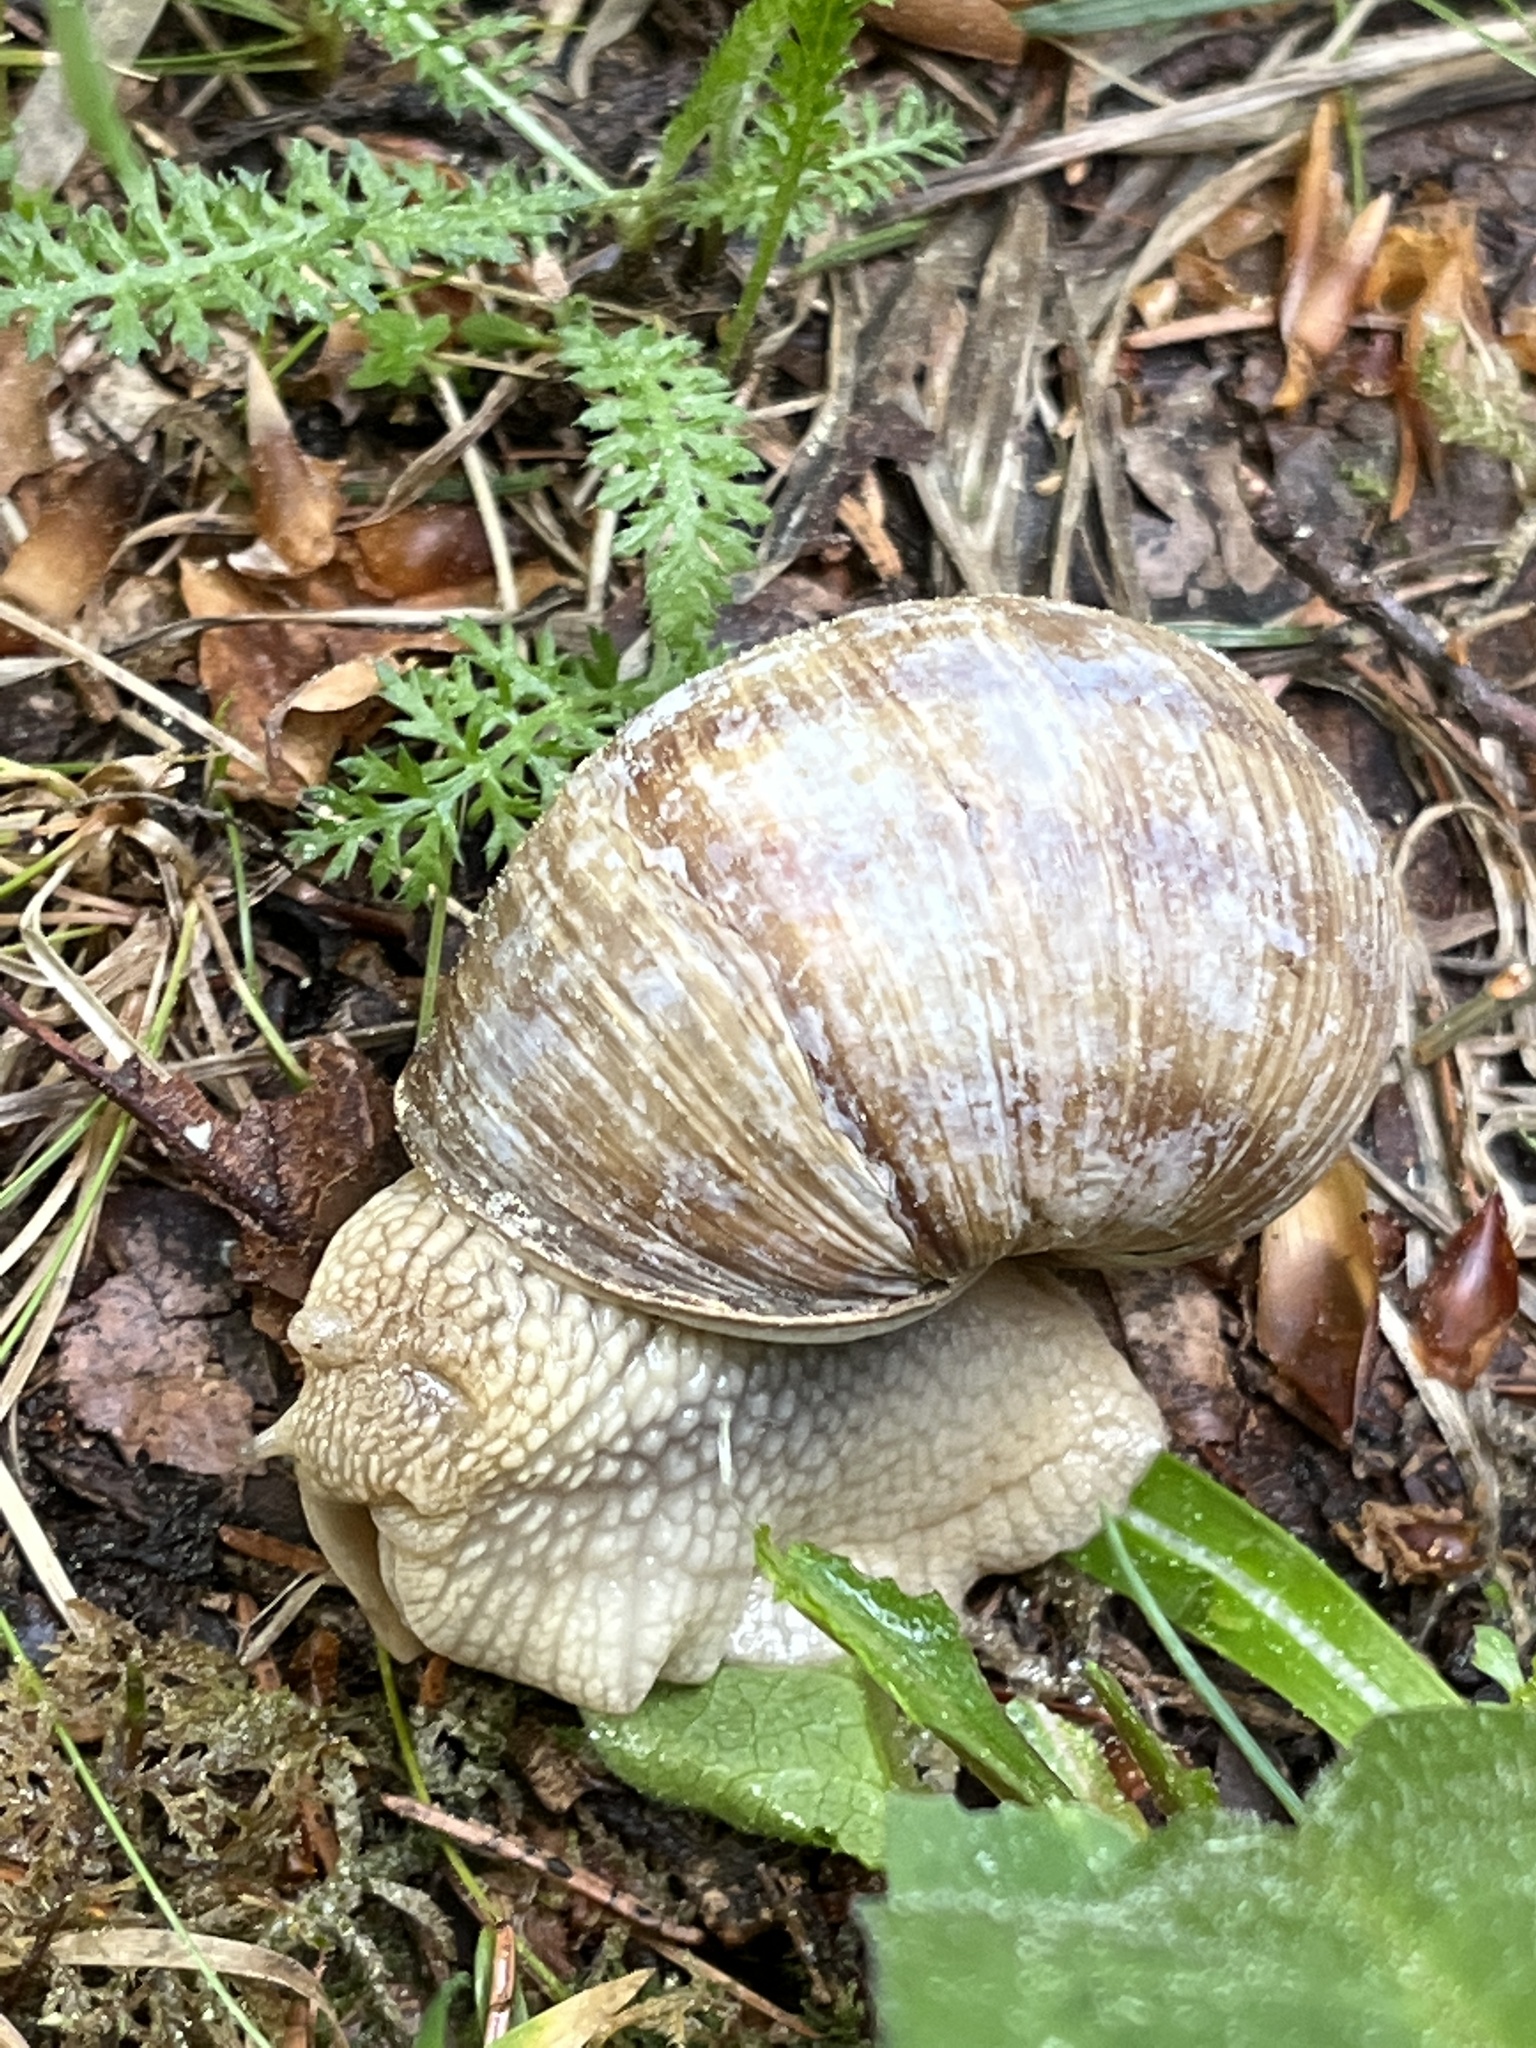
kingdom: Animalia
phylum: Mollusca
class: Gastropoda
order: Stylommatophora
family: Helicidae
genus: Helix
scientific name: Helix pomatia
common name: Roman snail
